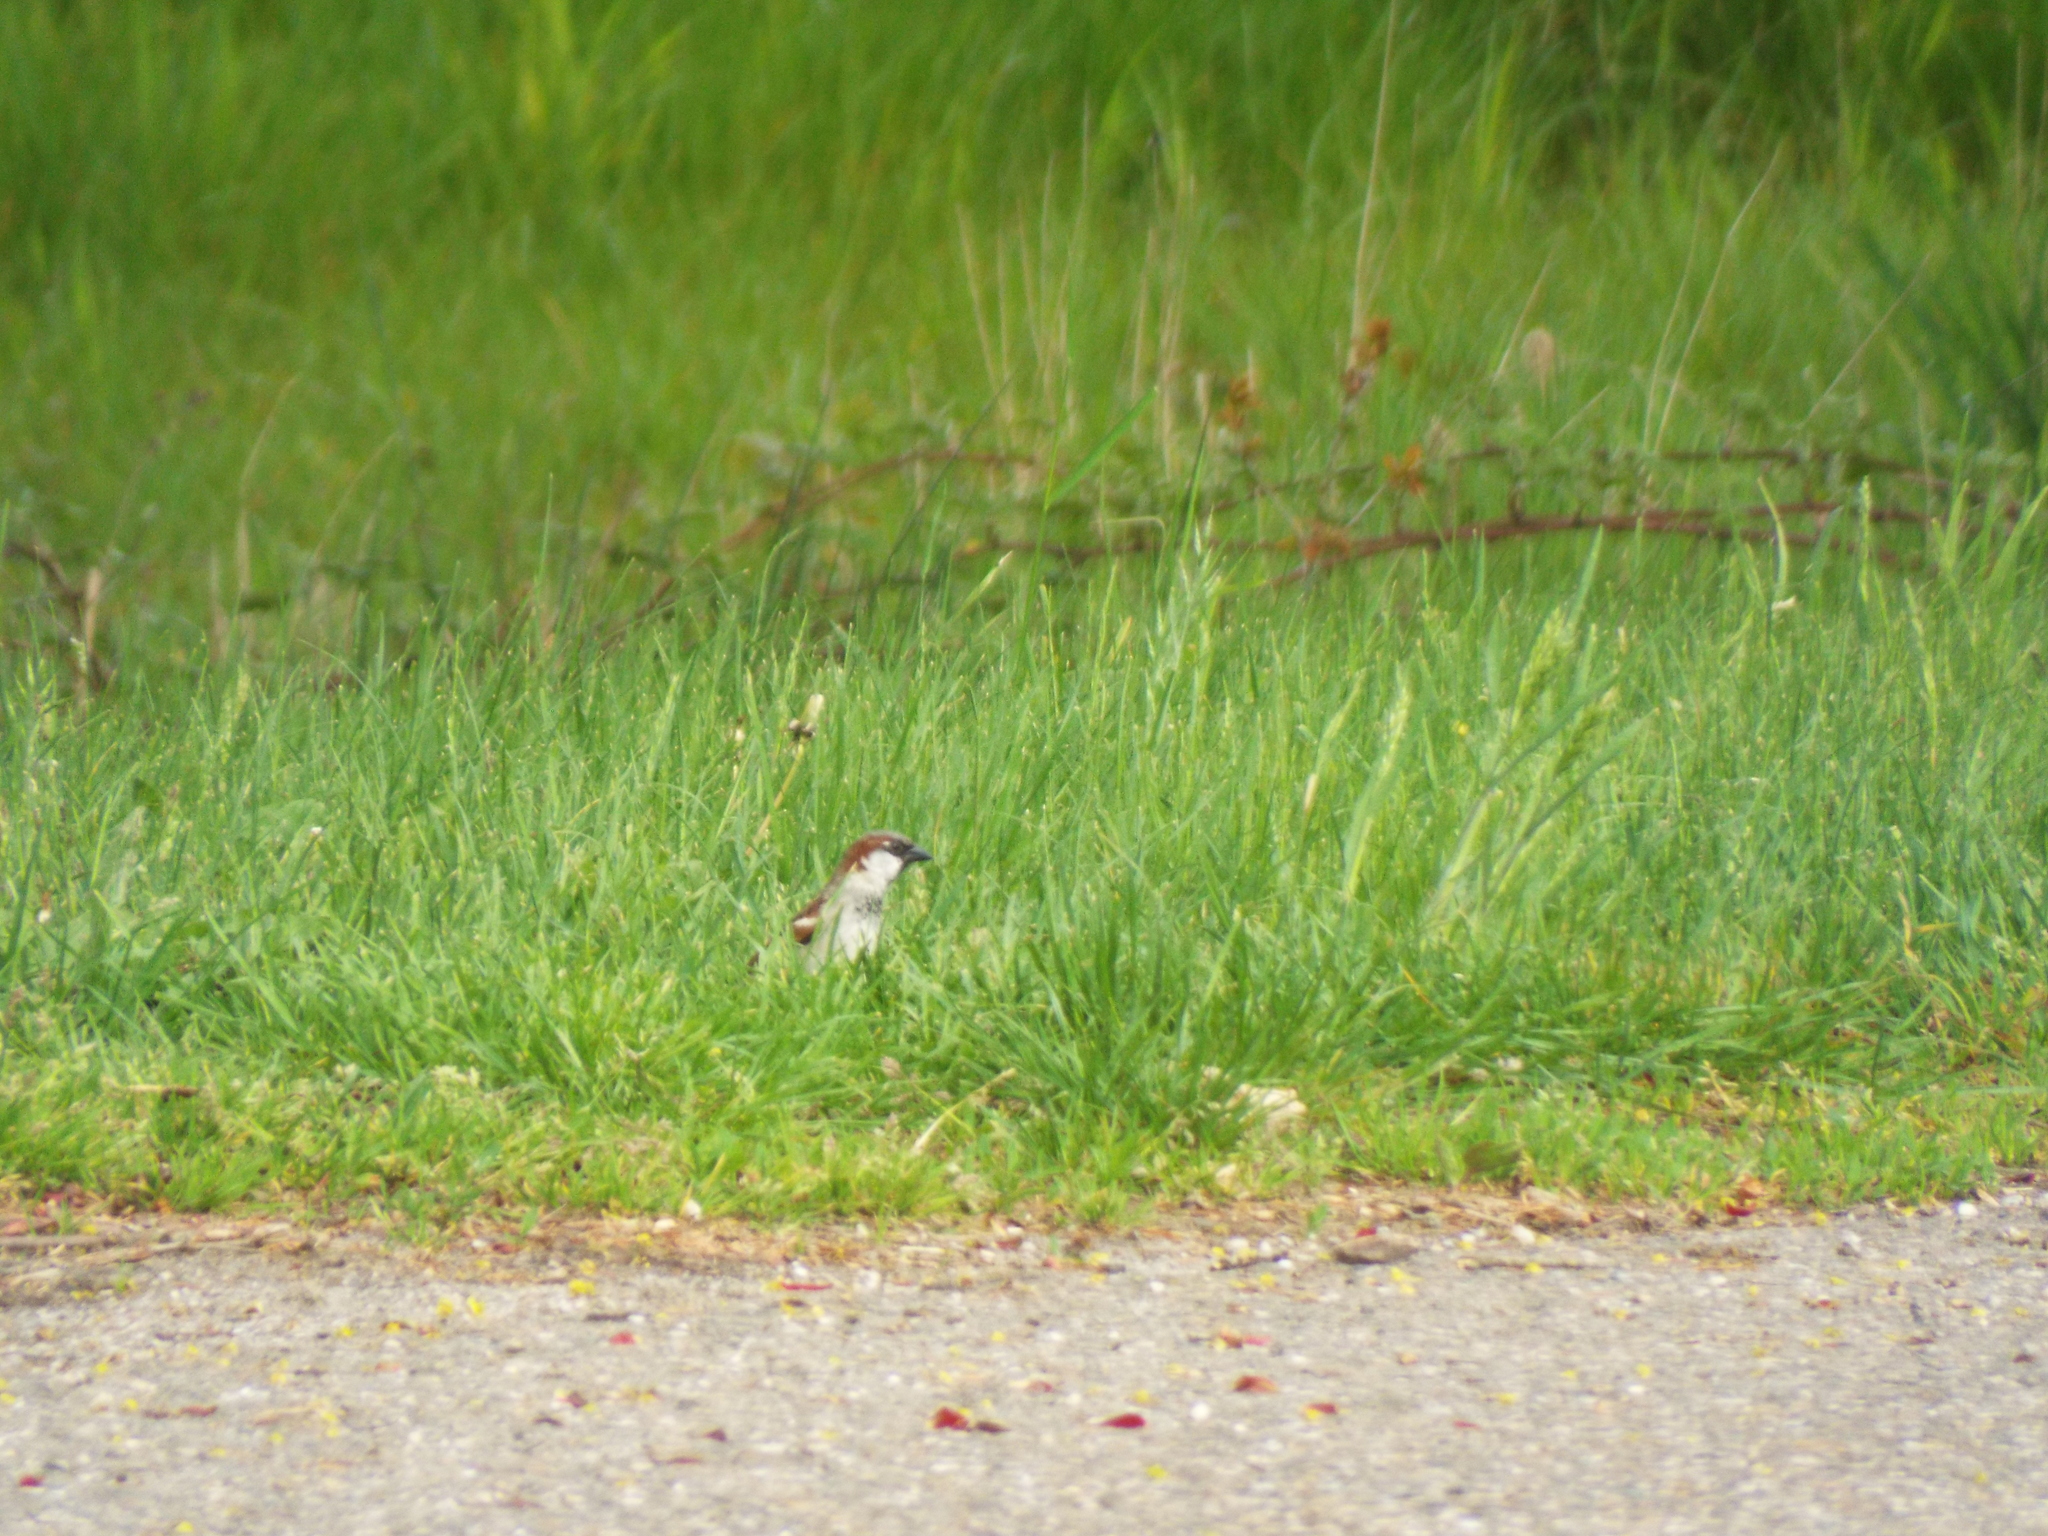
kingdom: Animalia
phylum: Chordata
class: Aves
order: Passeriformes
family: Passeridae
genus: Passer
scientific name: Passer domesticus
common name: House sparrow
